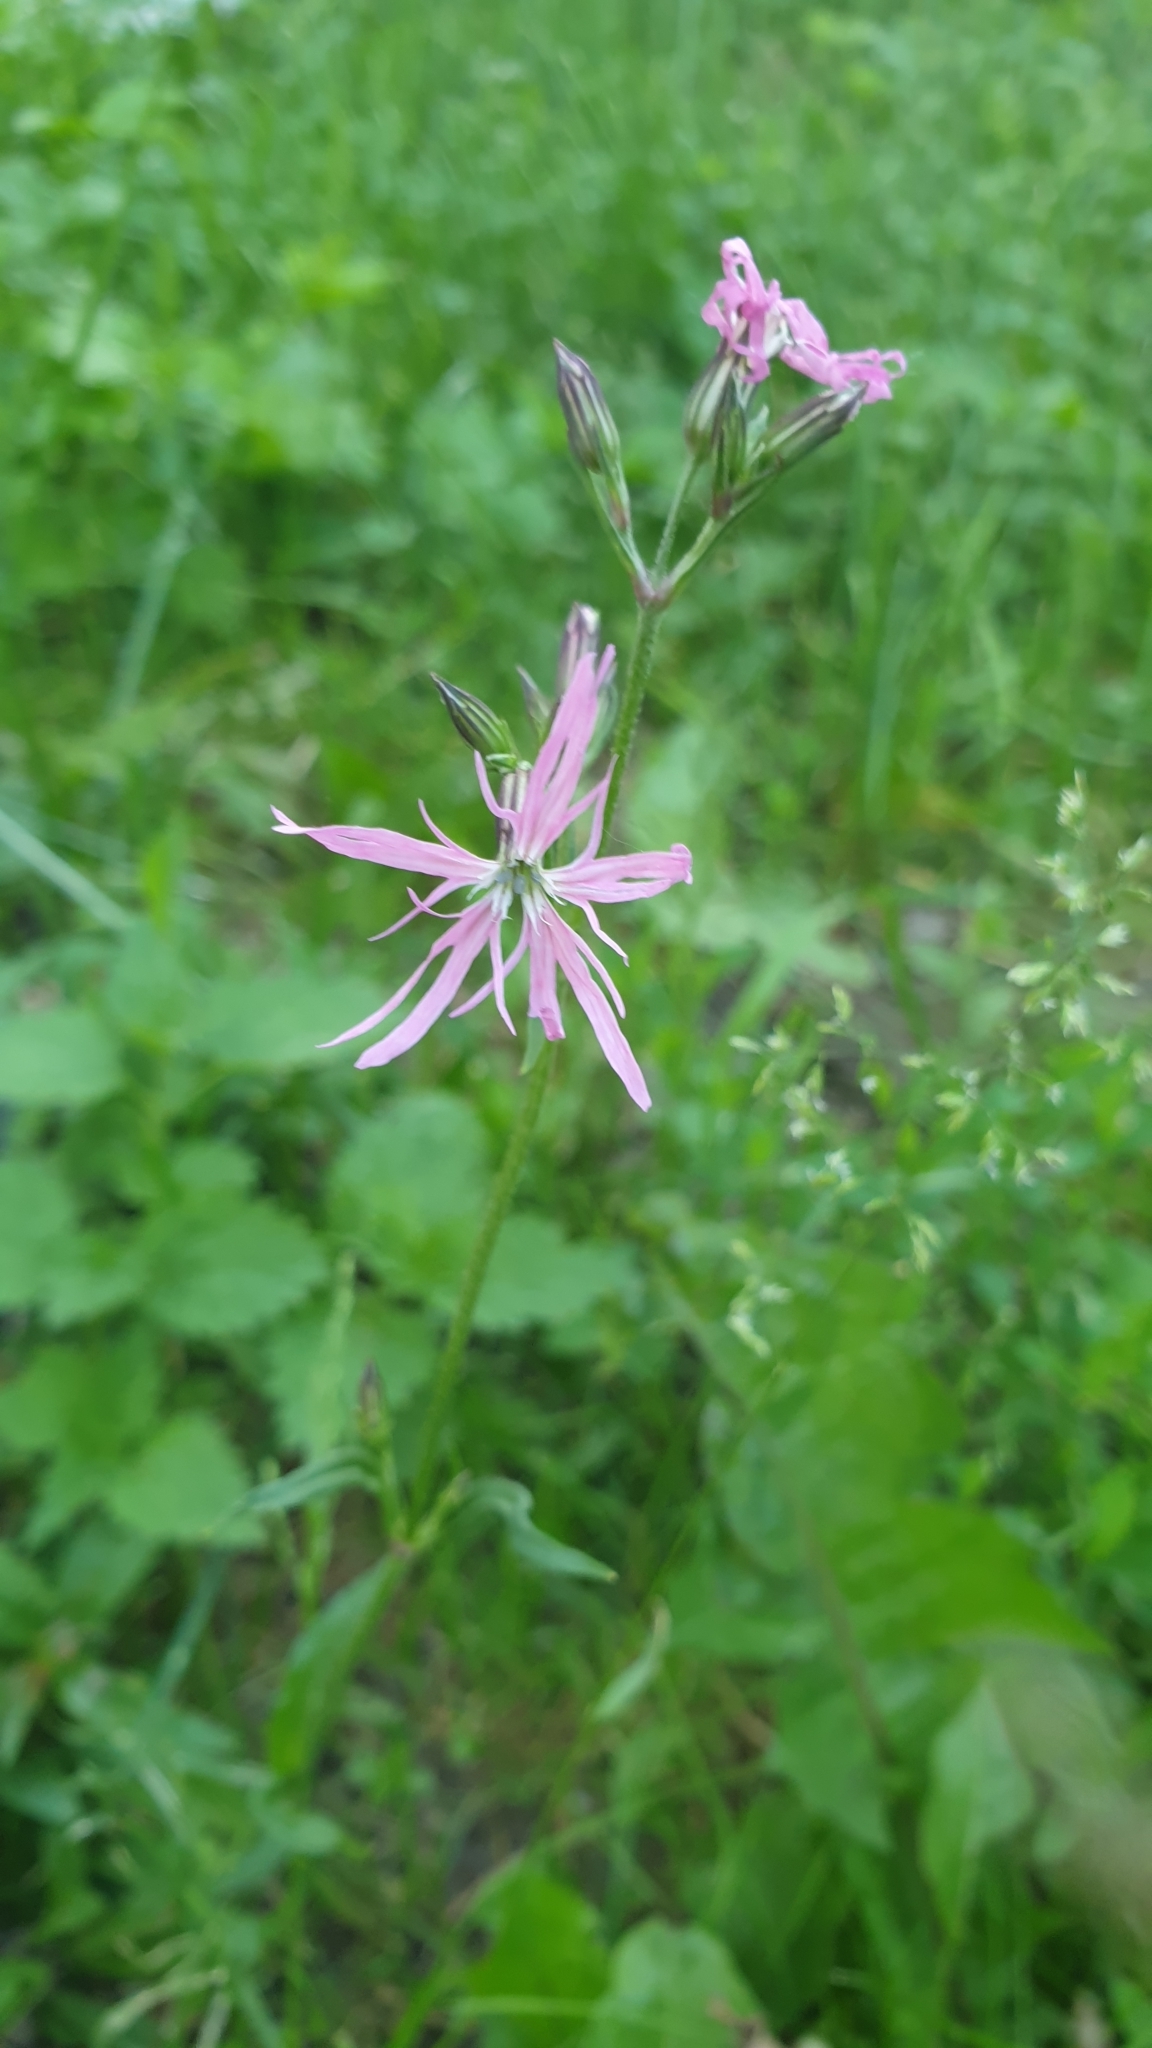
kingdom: Plantae
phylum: Tracheophyta
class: Magnoliopsida
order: Caryophyllales
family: Caryophyllaceae
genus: Silene
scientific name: Silene flos-cuculi
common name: Ragged-robin
